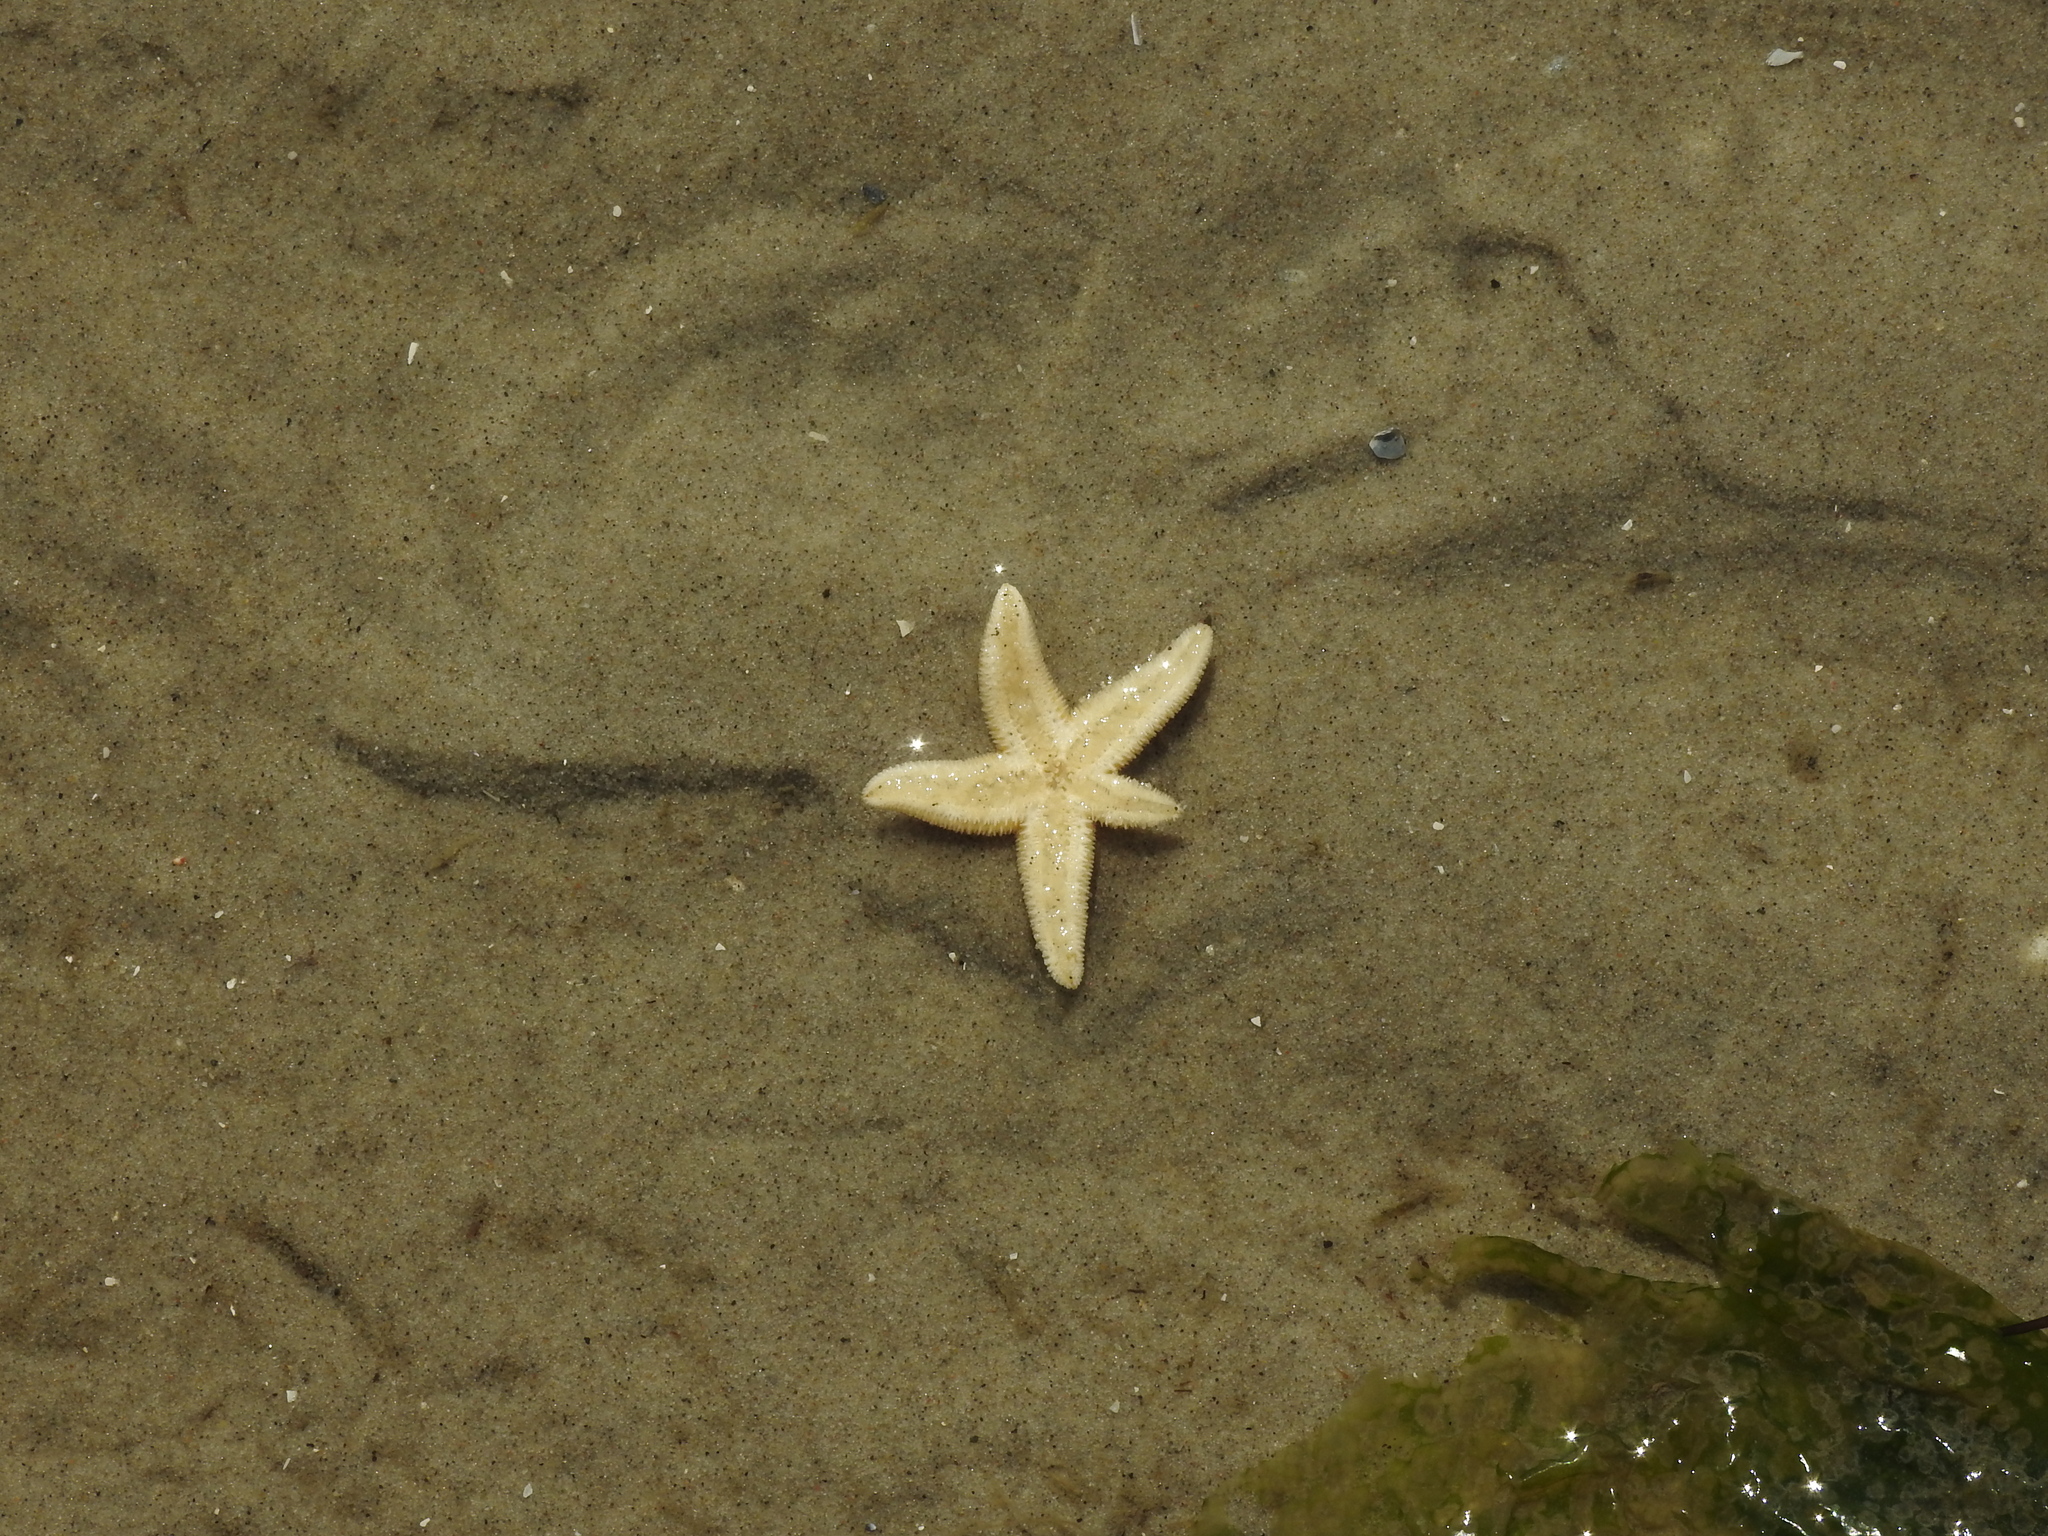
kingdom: Animalia
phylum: Echinodermata
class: Asteroidea
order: Forcipulatida
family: Asteriidae
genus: Asterias
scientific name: Asterias rubens
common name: Common starfish
